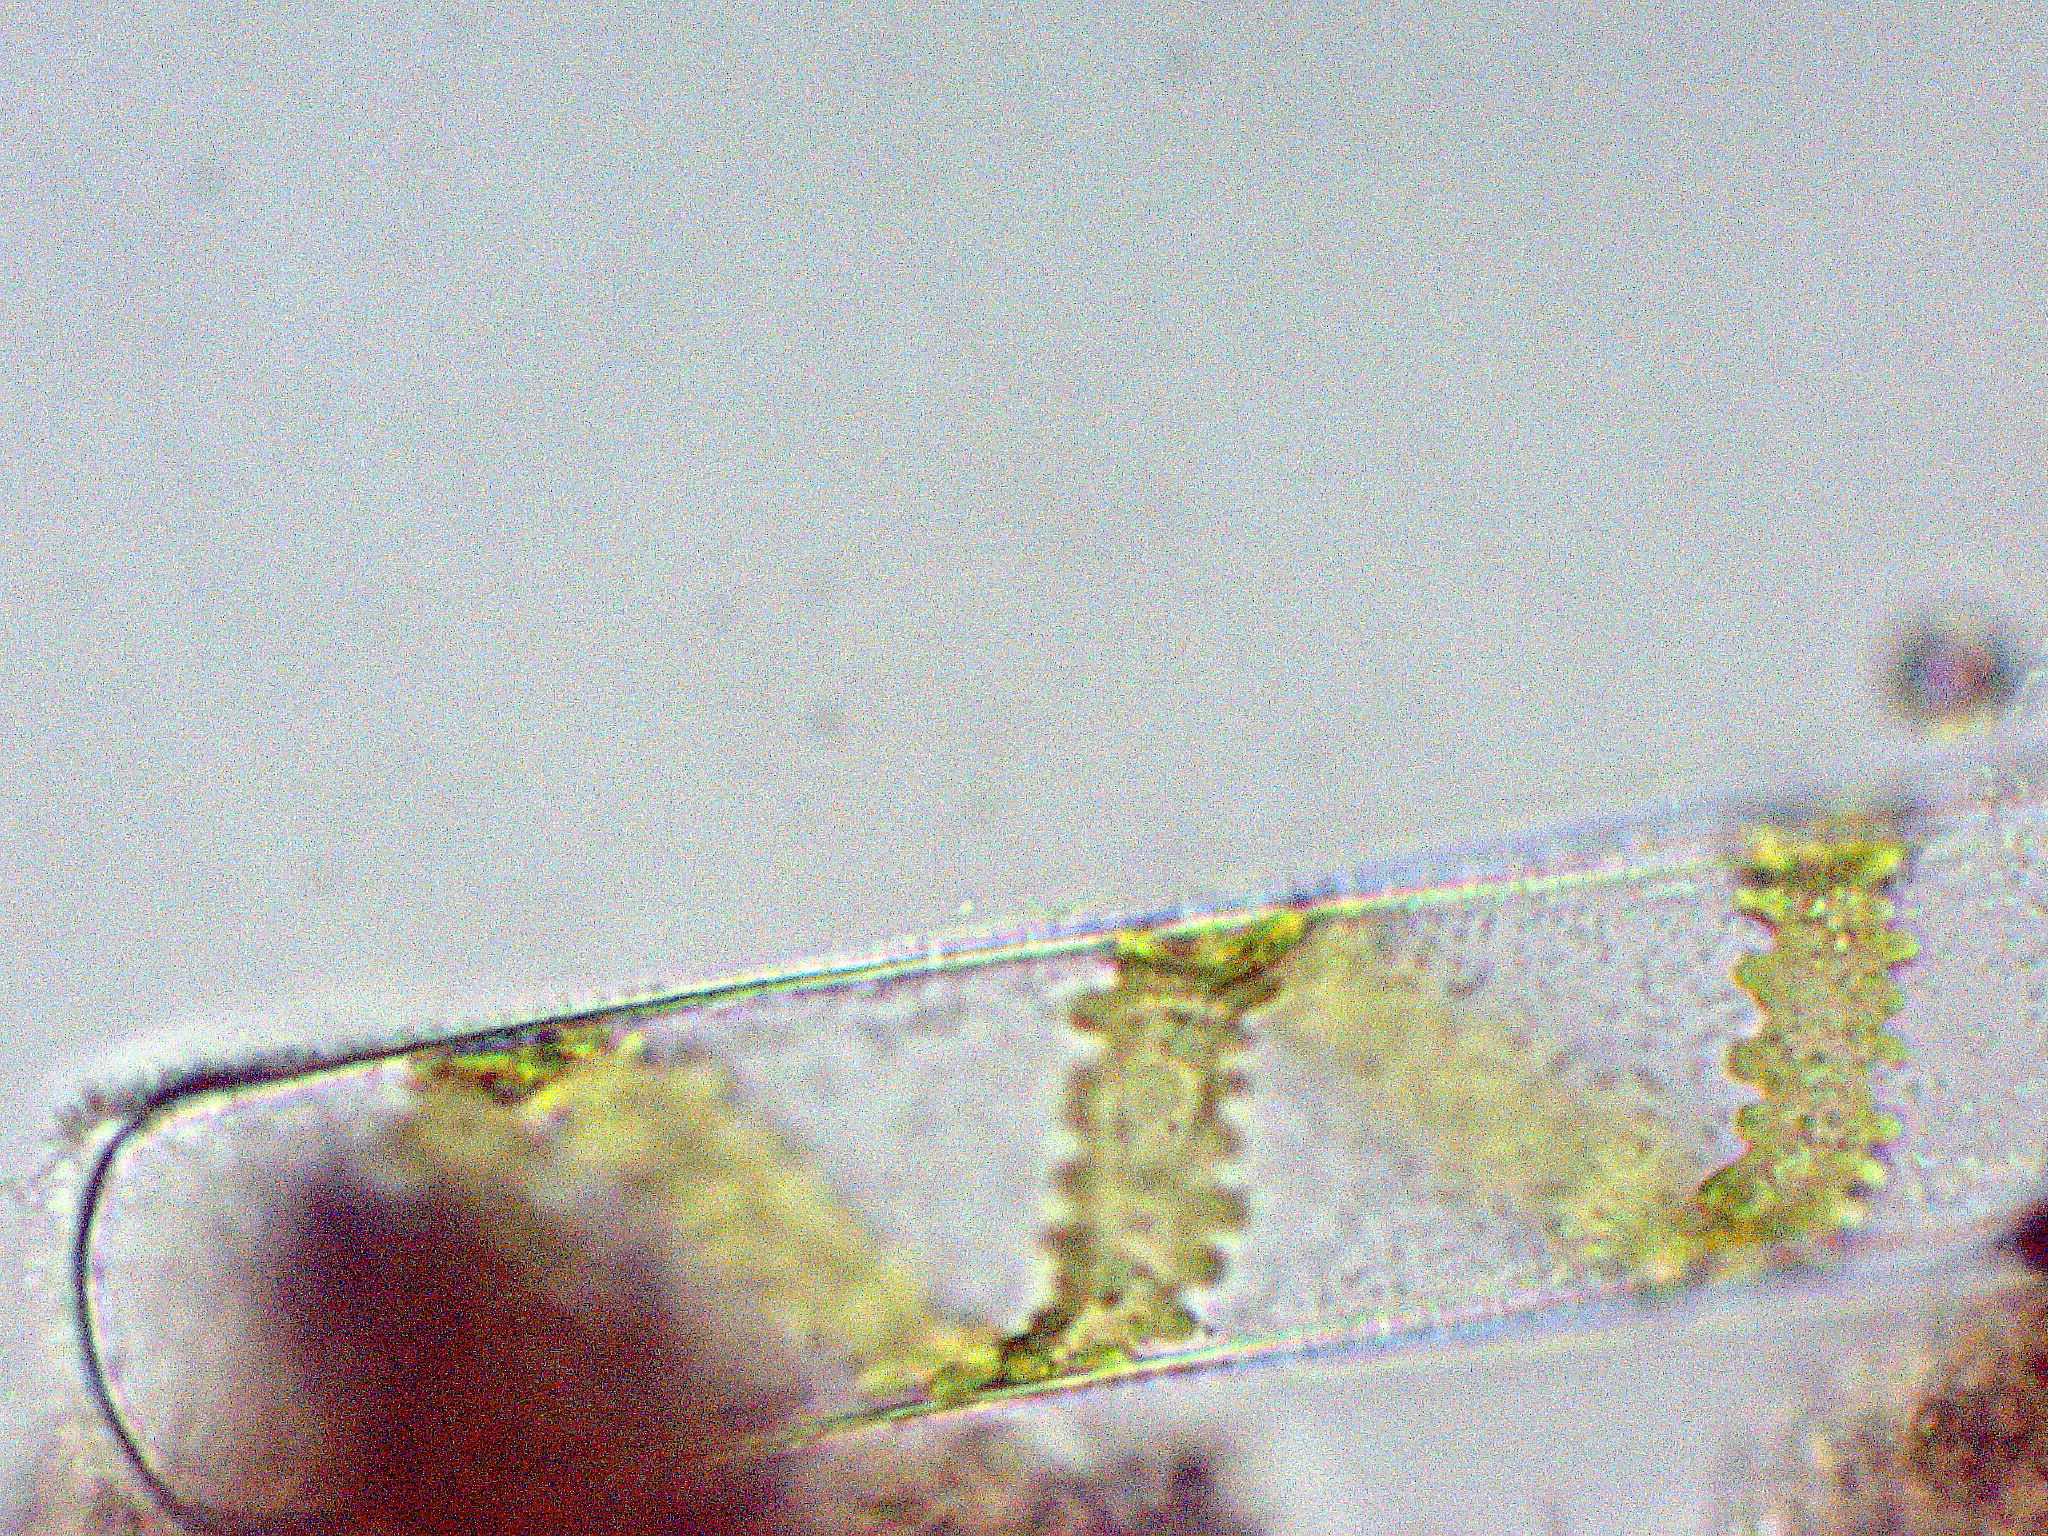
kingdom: Plantae
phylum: Charophyta
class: Zygnematophyceae
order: Zygnematales
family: Zygnemataceae
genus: Spirogyra
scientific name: Spirogyra
